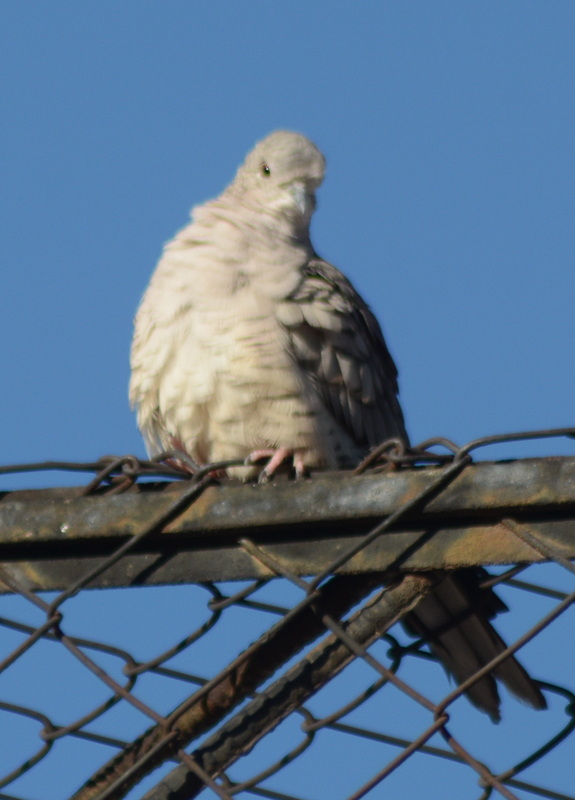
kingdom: Animalia
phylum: Chordata
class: Aves
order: Columbiformes
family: Columbidae
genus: Columbina
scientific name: Columbina inca
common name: Inca dove
